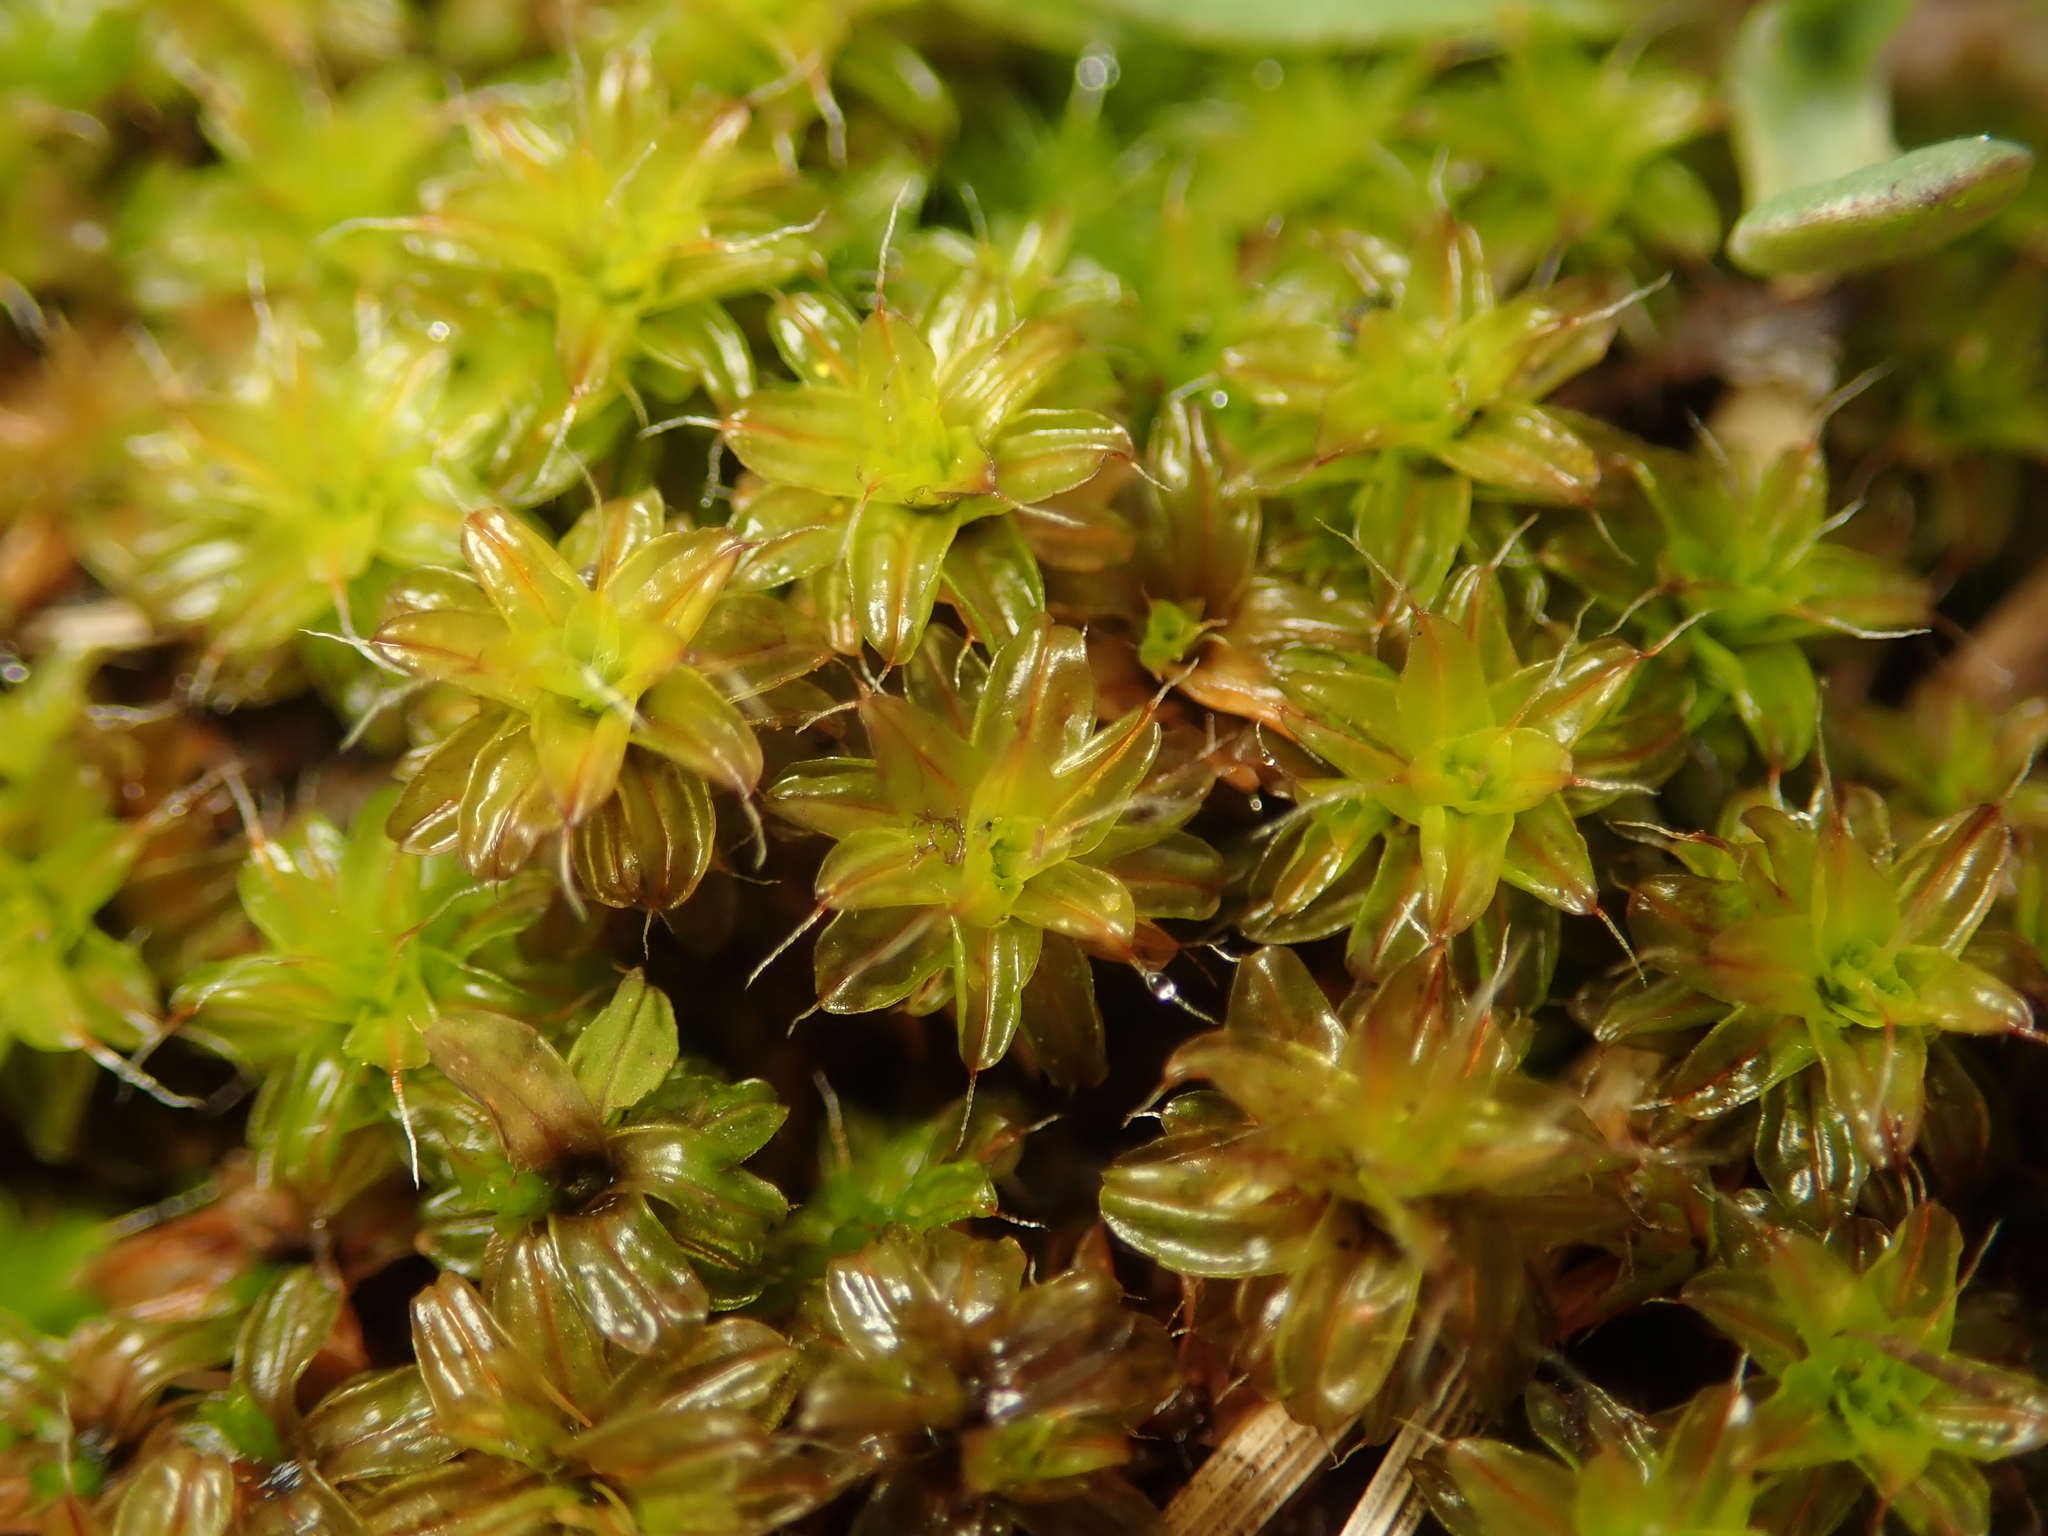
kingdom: Plantae
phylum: Bryophyta
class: Bryopsida
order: Pottiales
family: Pottiaceae
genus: Syntrichia
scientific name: Syntrichia ruralis
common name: Sidewalk screw moss
